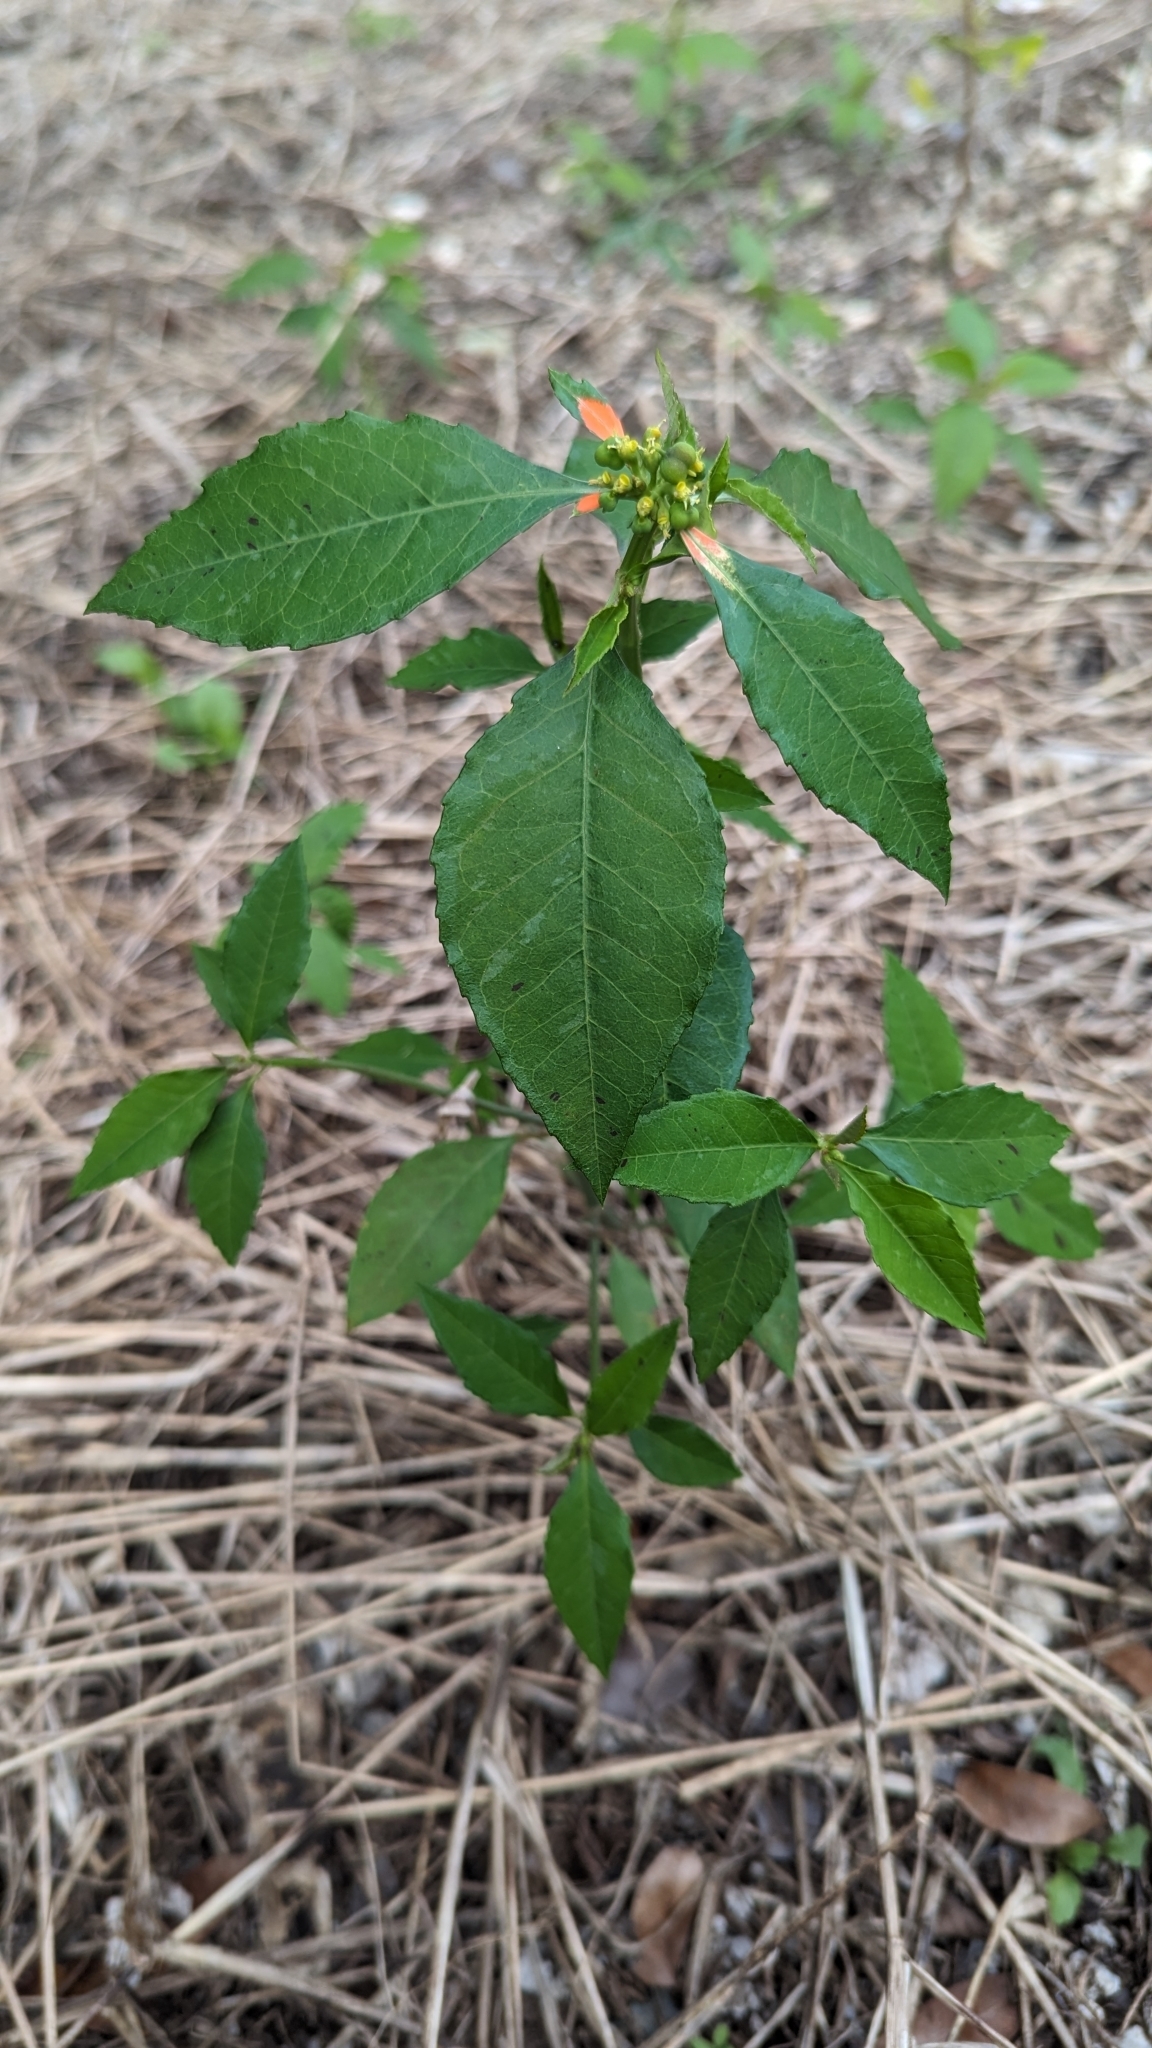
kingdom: Plantae
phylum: Tracheophyta
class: Magnoliopsida
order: Malpighiales
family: Euphorbiaceae
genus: Euphorbia
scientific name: Euphorbia heterophylla
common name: Mexican fireplant
